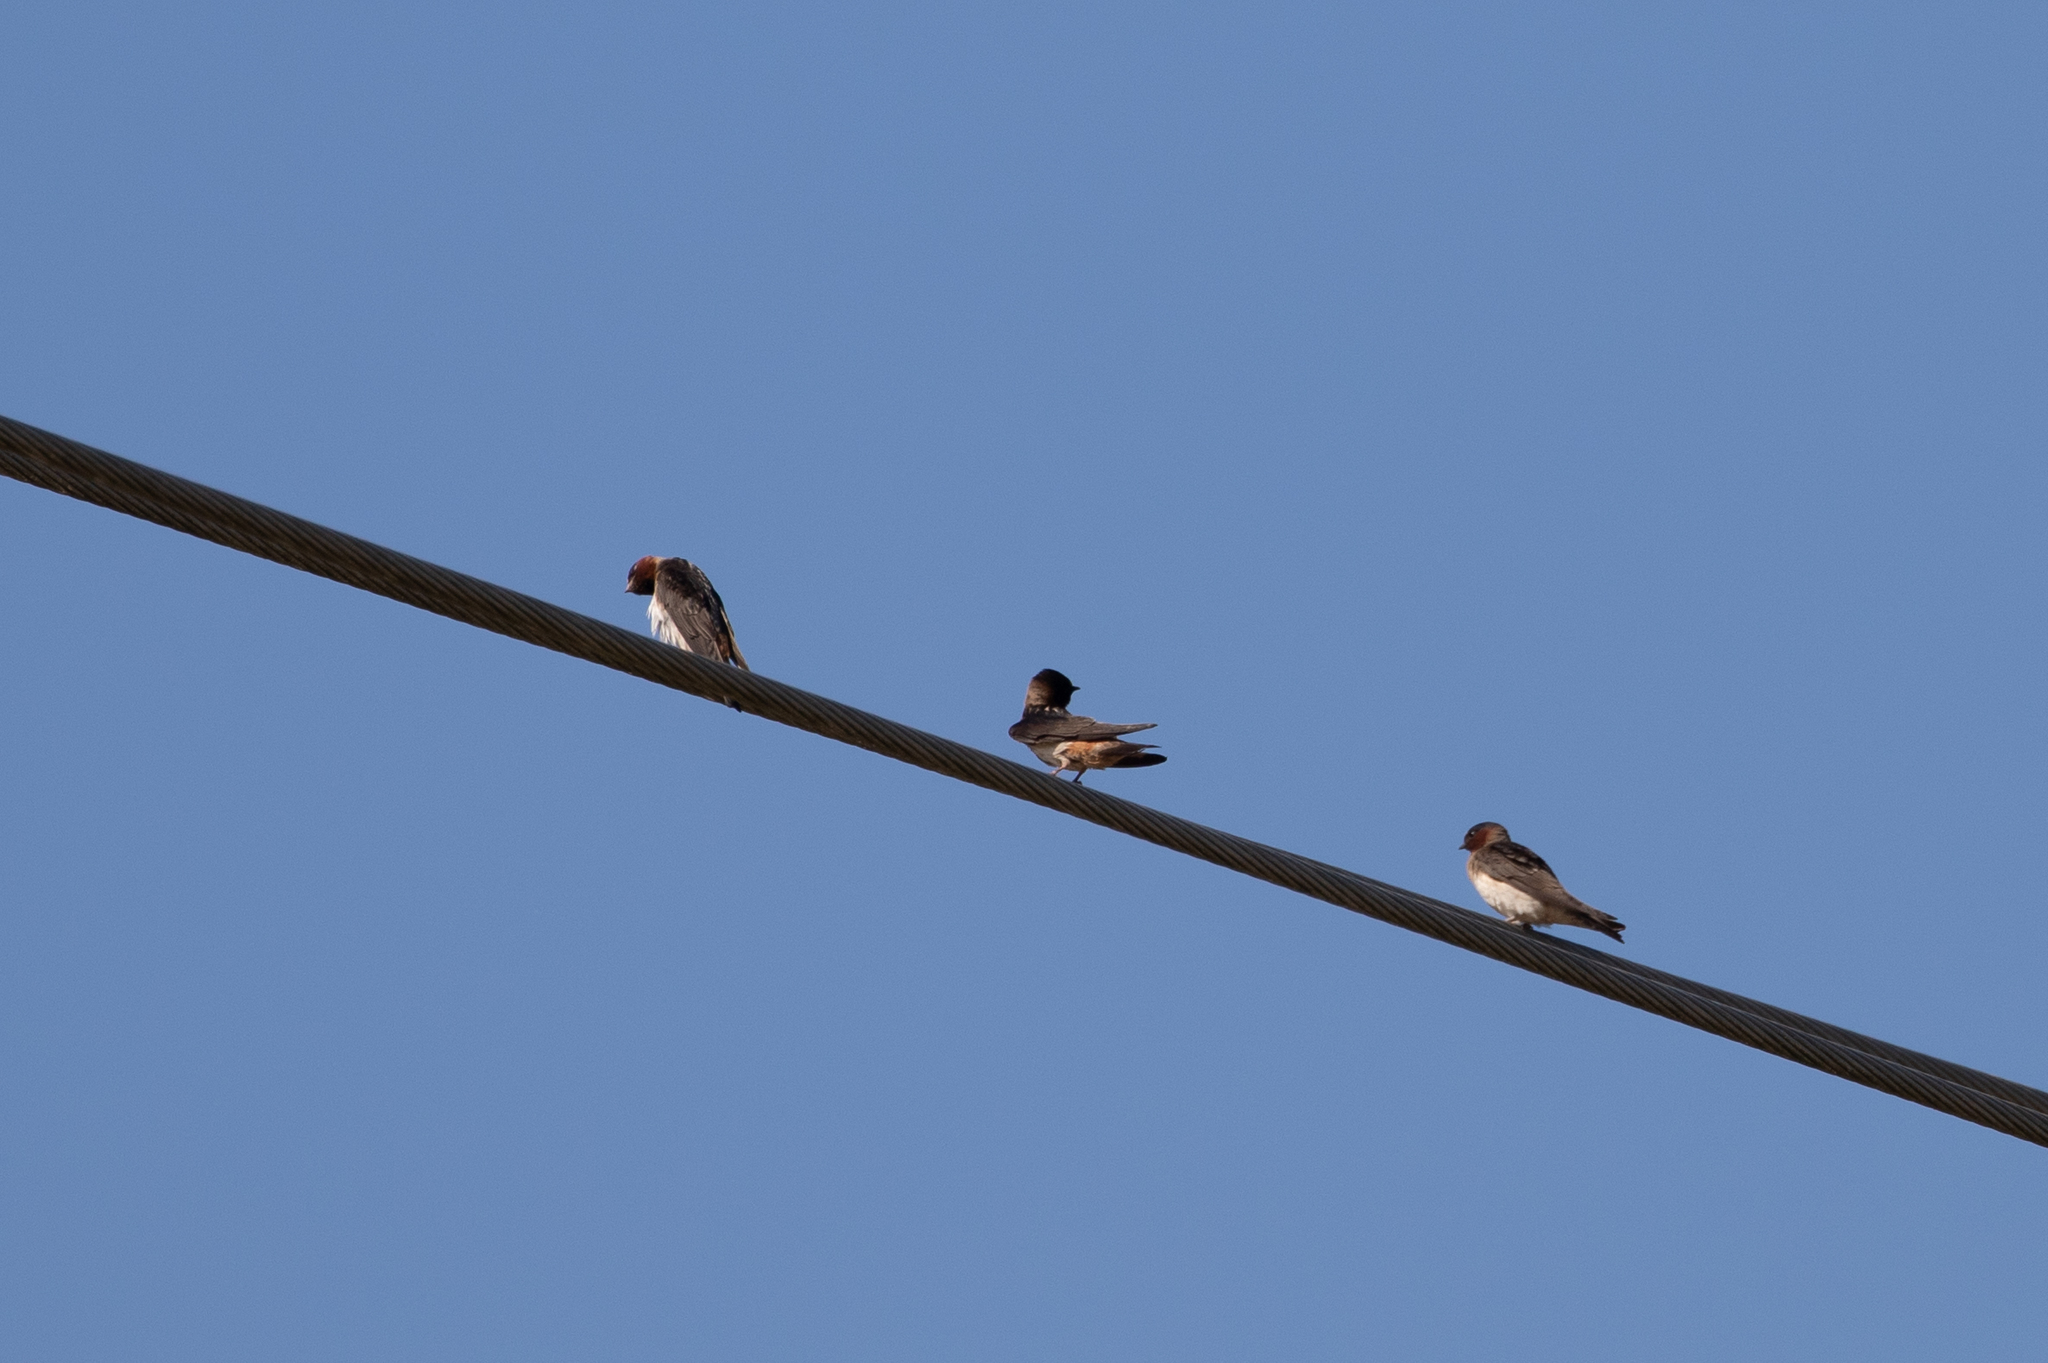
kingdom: Animalia
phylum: Chordata
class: Aves
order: Passeriformes
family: Hirundinidae
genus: Petrochelidon
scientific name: Petrochelidon pyrrhonota
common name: American cliff swallow
